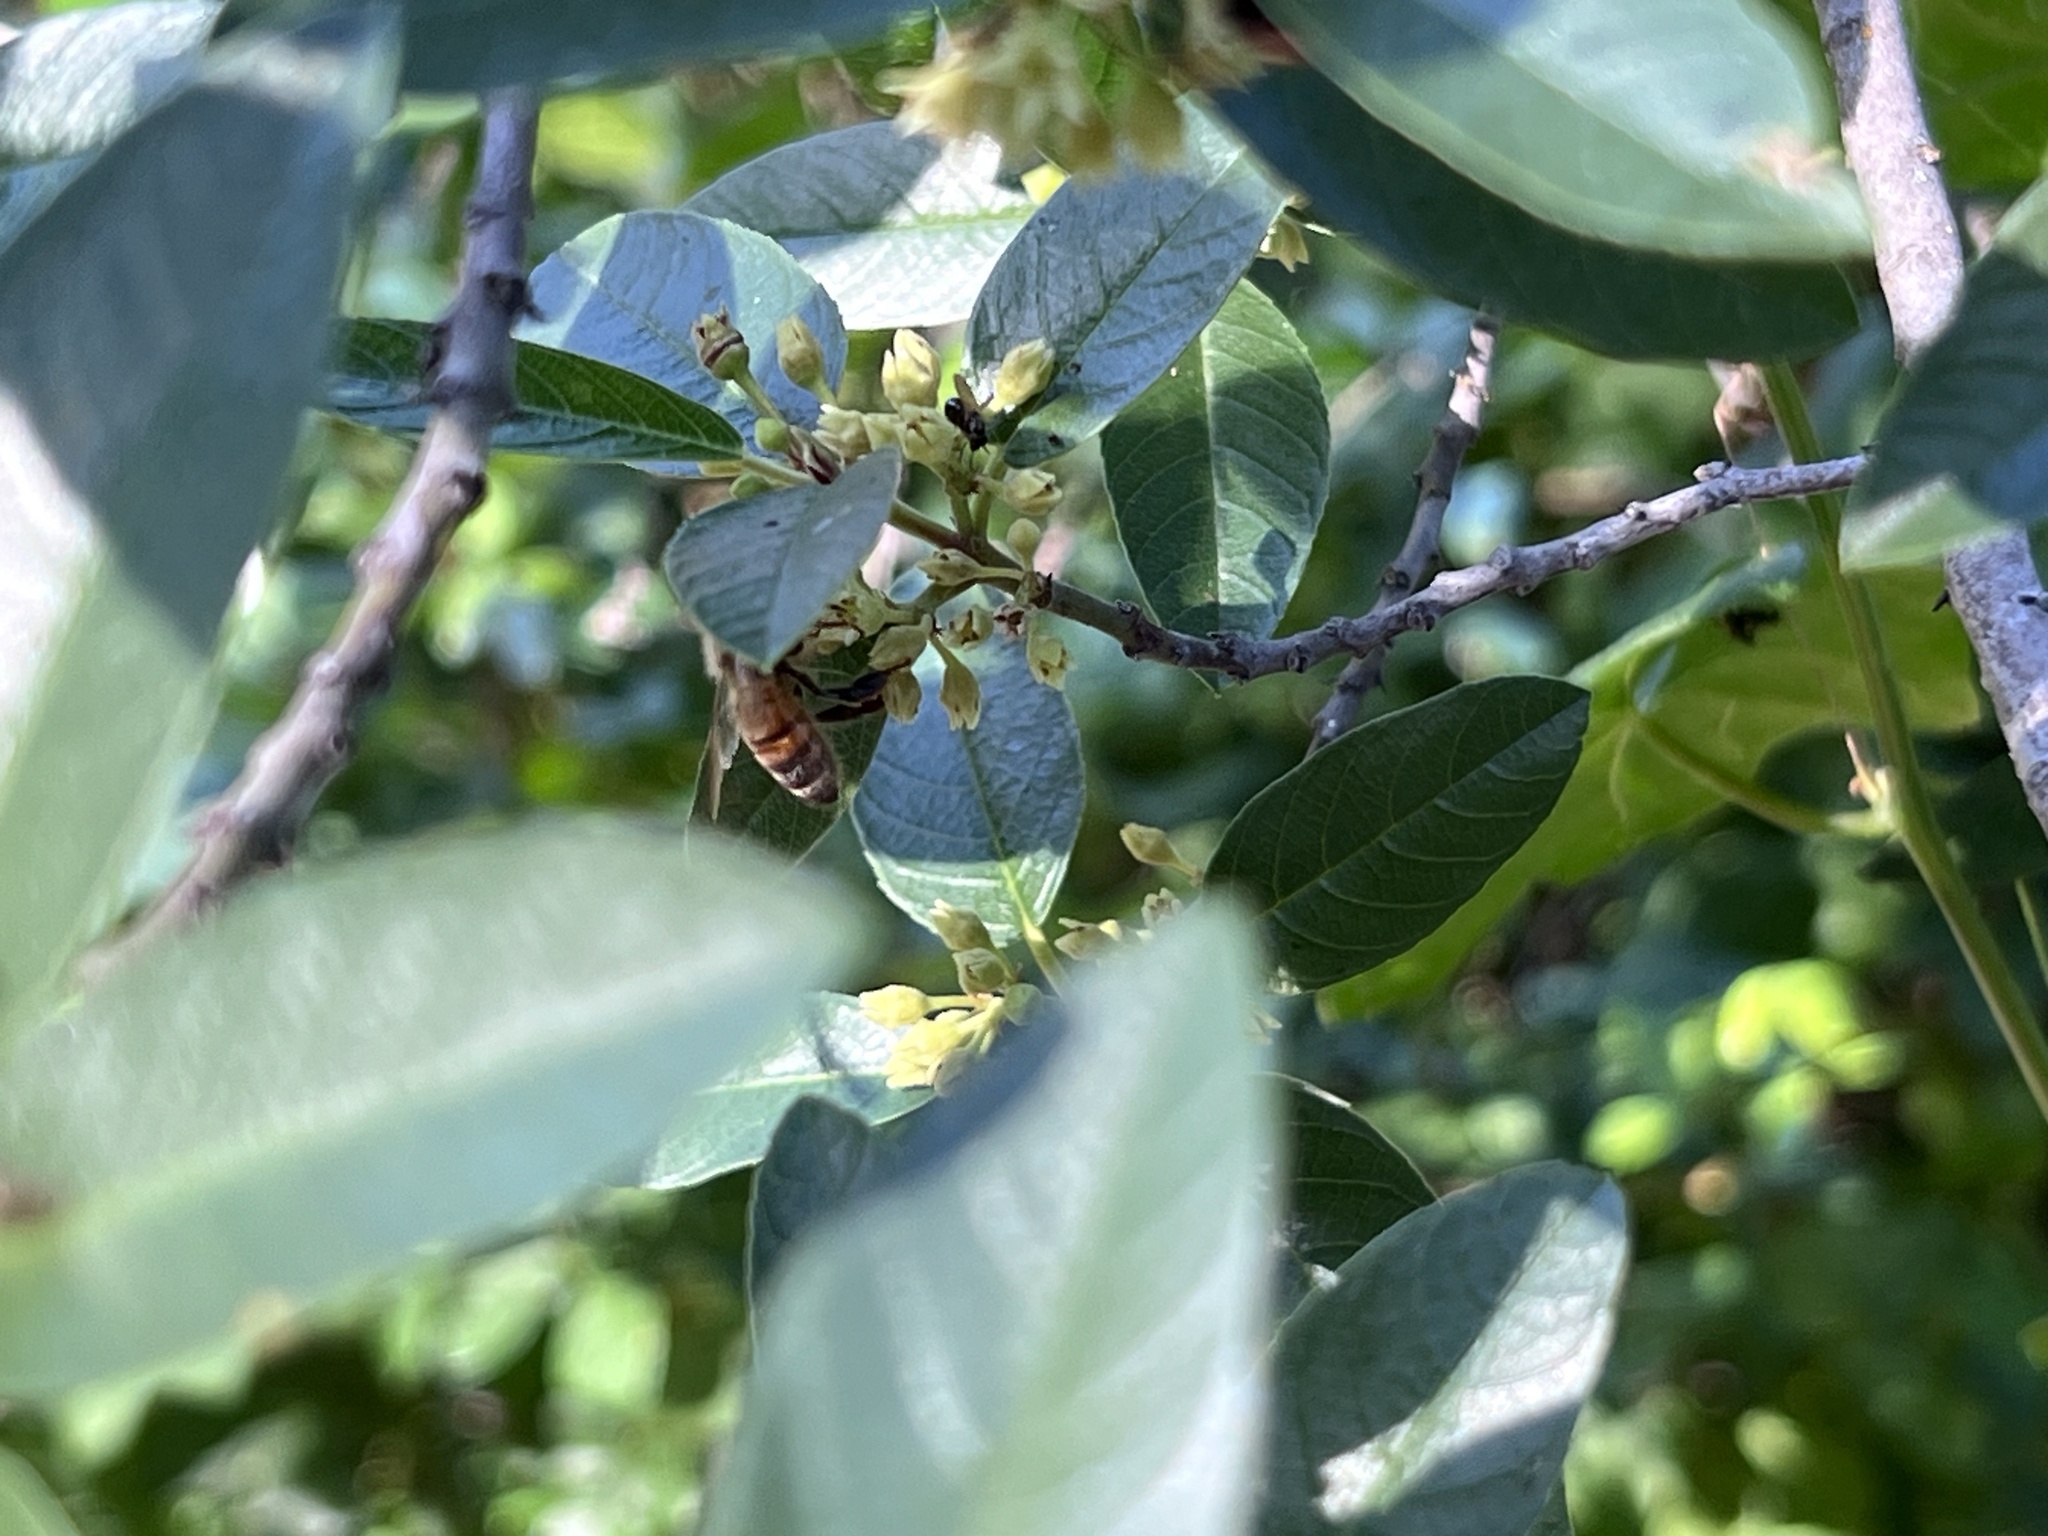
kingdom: Animalia
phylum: Arthropoda
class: Insecta
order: Hymenoptera
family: Apidae
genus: Apis
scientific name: Apis mellifera
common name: Honey bee
